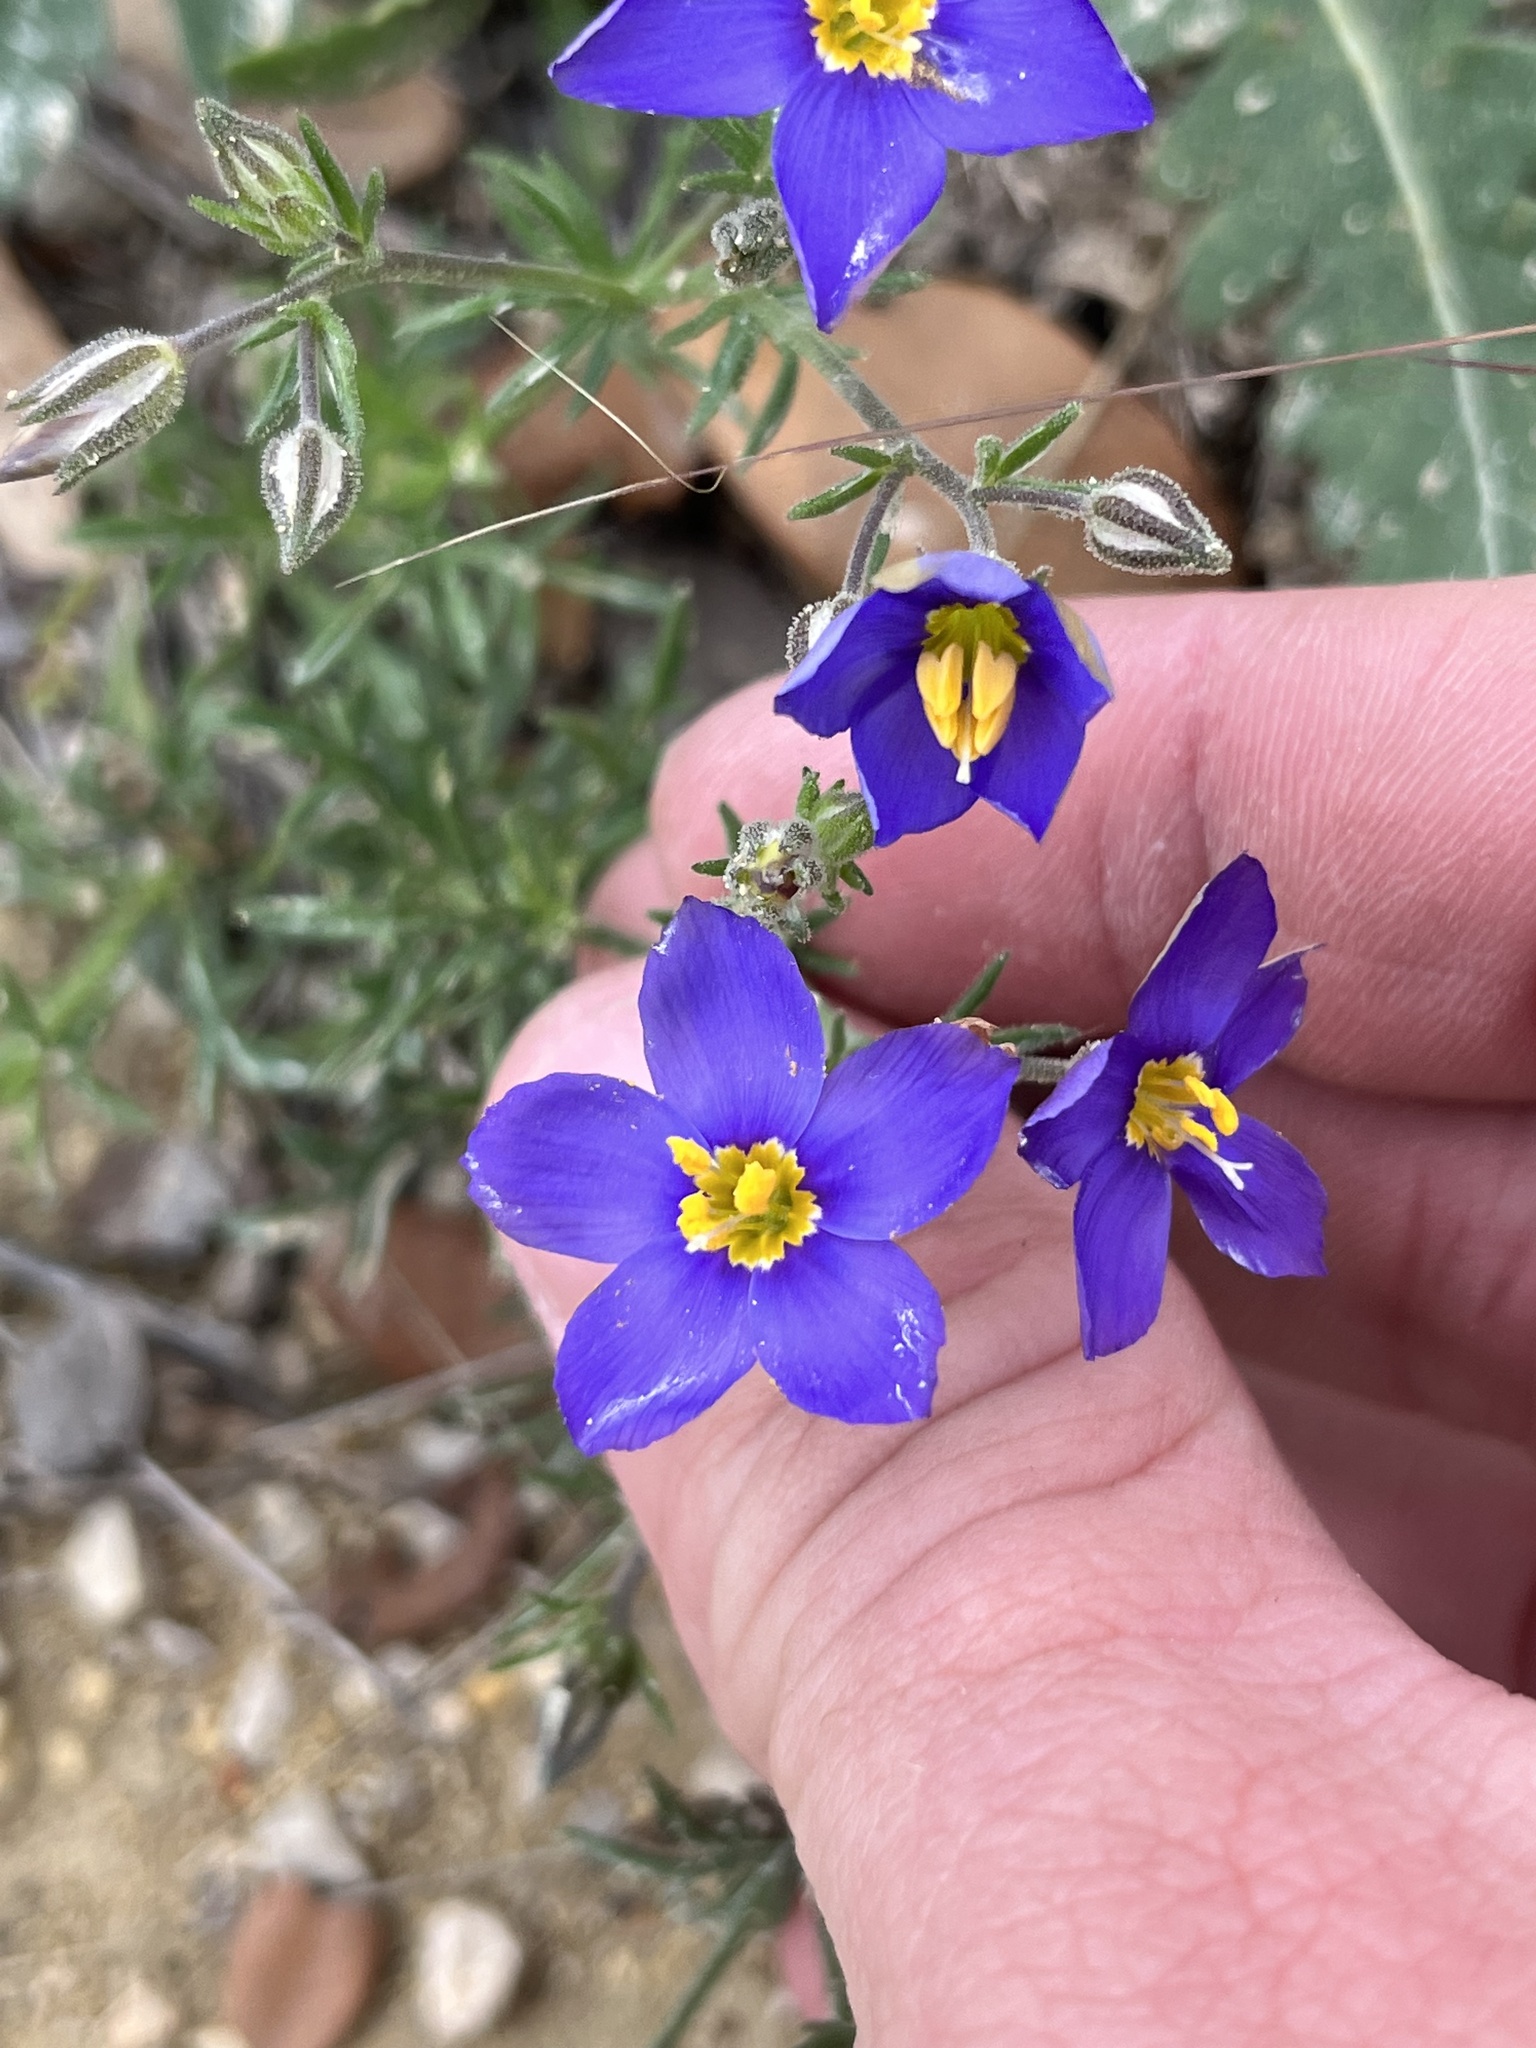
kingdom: Plantae
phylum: Tracheophyta
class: Magnoliopsida
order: Ericales
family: Polemoniaceae
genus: Giliastrum
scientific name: Giliastrum rigidulum
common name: Bluebowls
